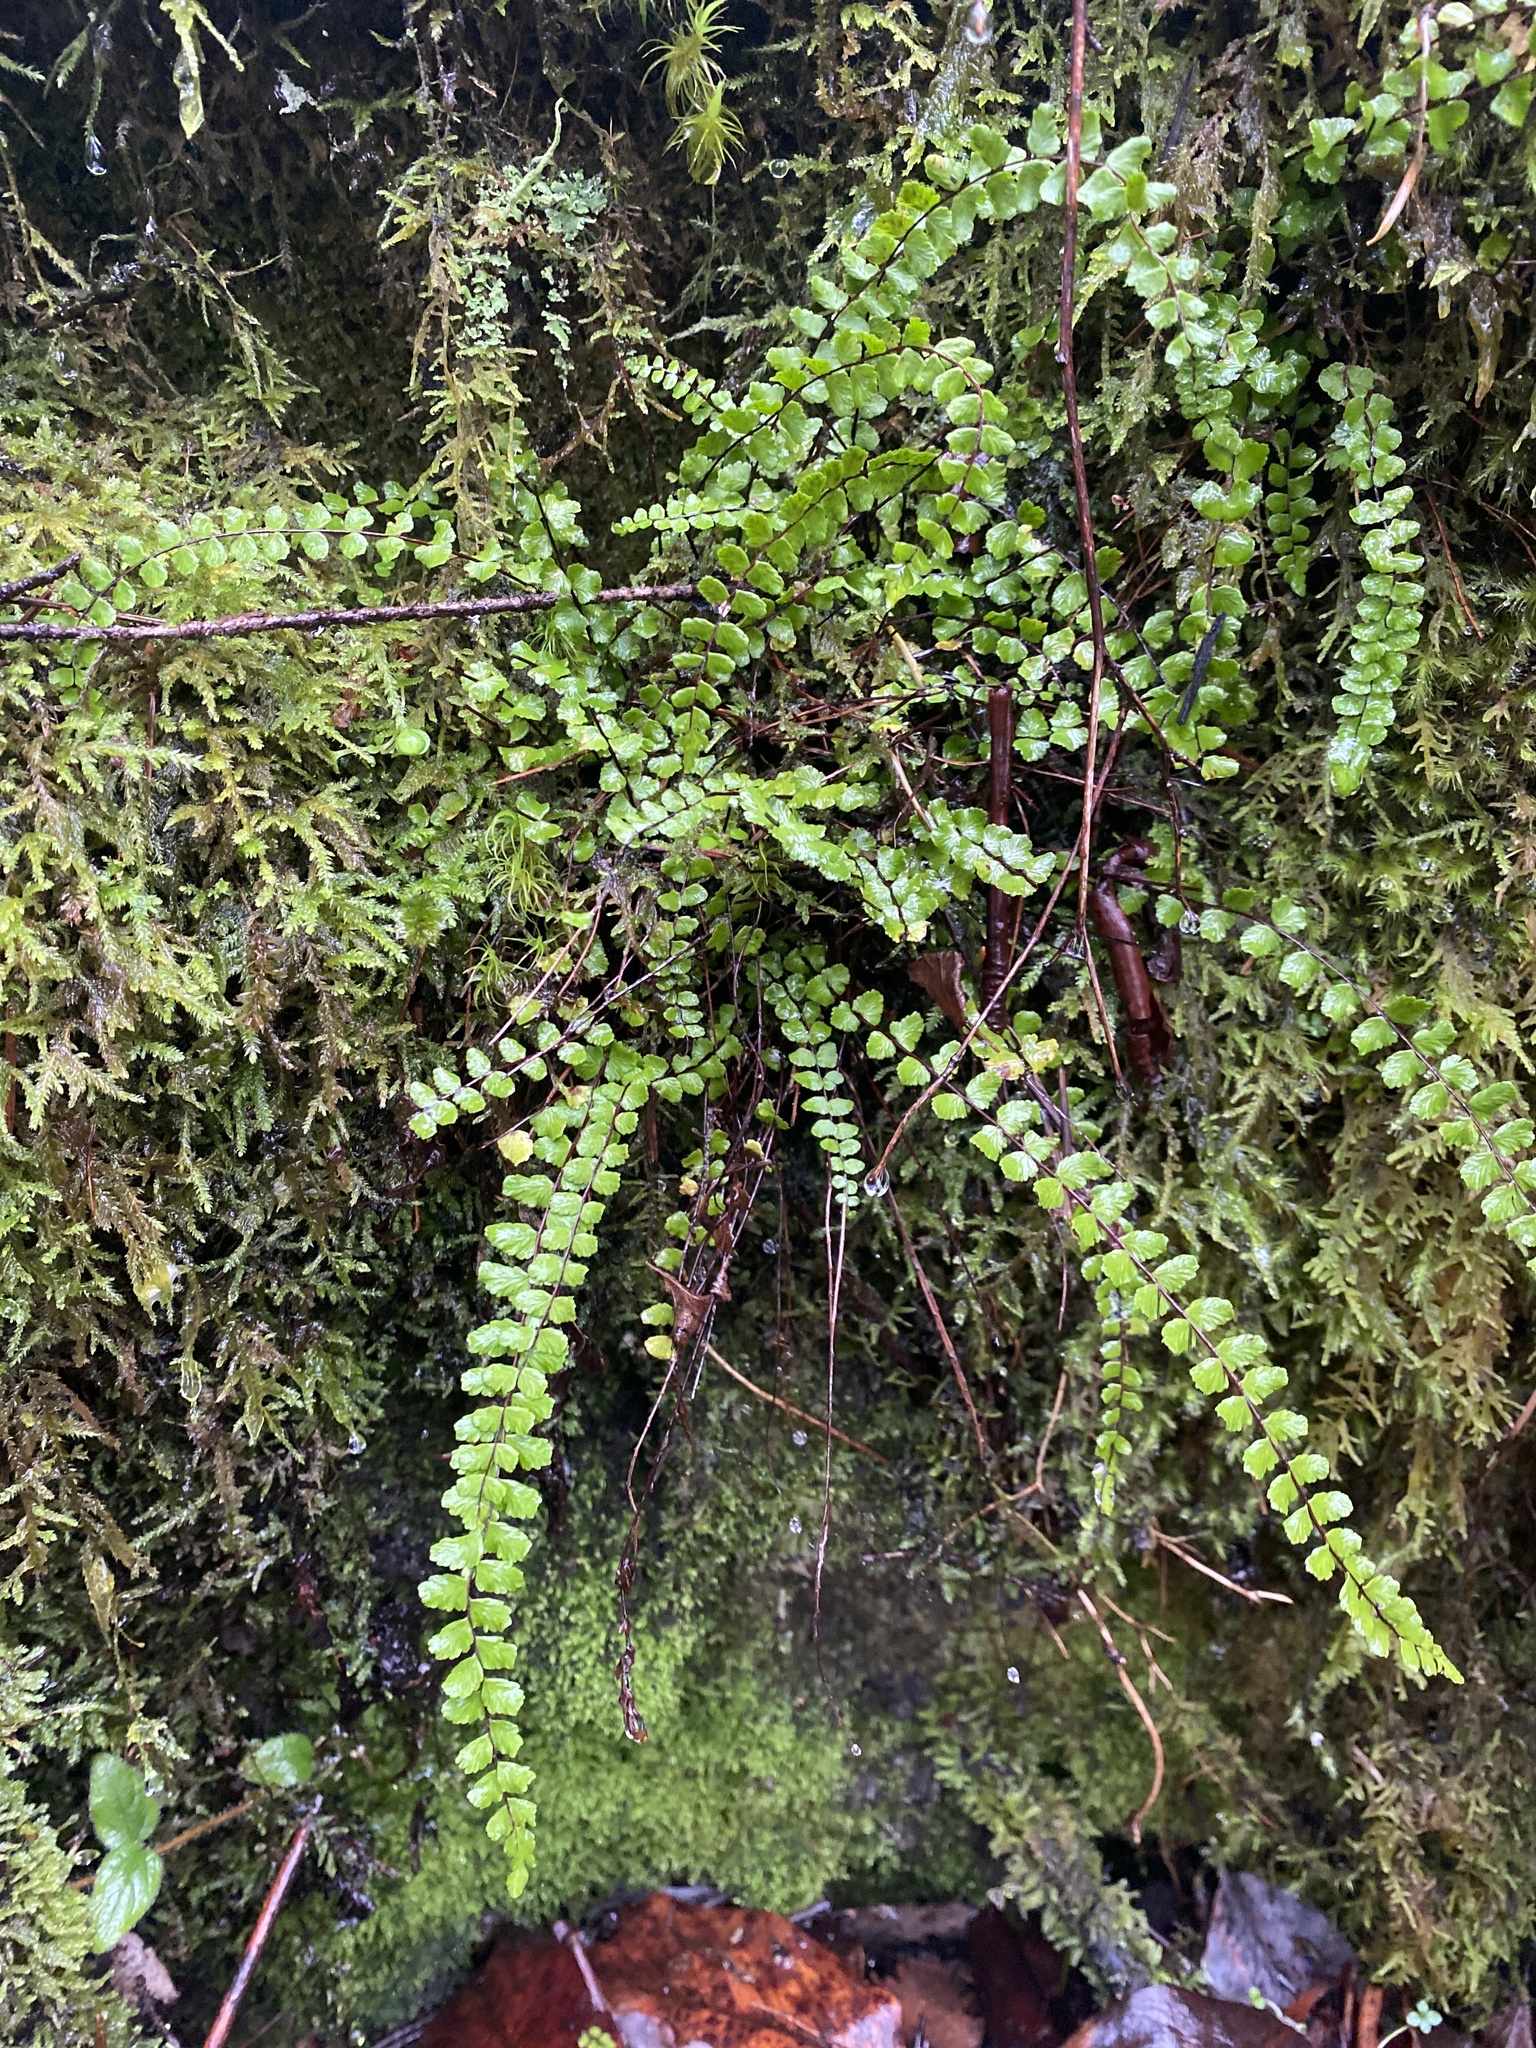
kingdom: Plantae
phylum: Tracheophyta
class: Polypodiopsida
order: Polypodiales
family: Aspleniaceae
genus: Asplenium
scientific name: Asplenium trichomanes
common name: Maidenhair spleenwort
